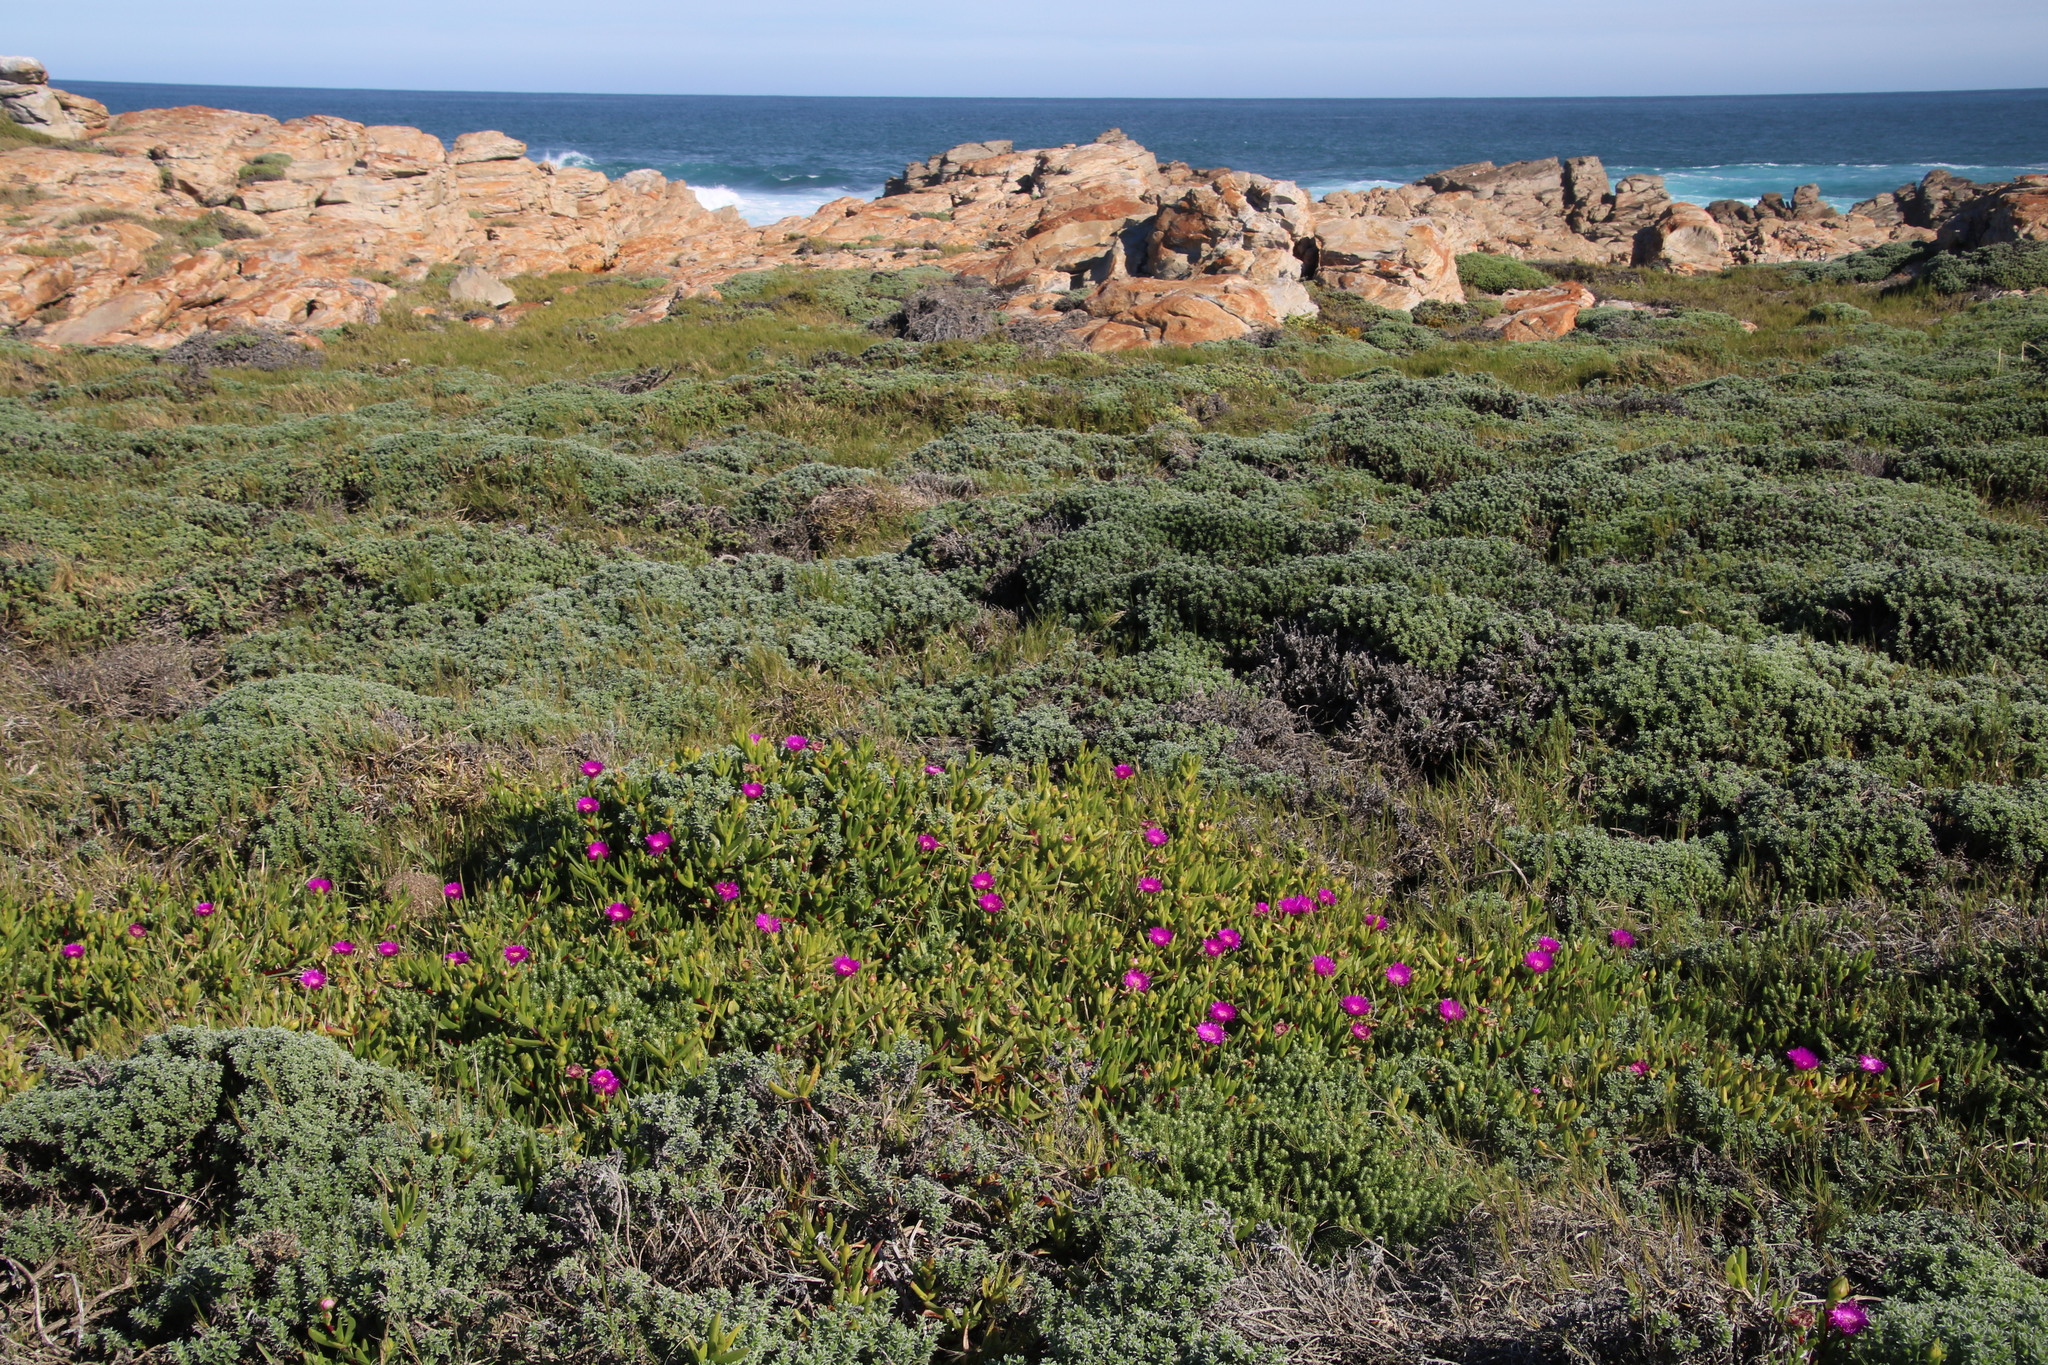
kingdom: Plantae
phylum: Tracheophyta
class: Magnoliopsida
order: Caryophyllales
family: Aizoaceae
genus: Carpobrotus
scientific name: Carpobrotus deliciosus
